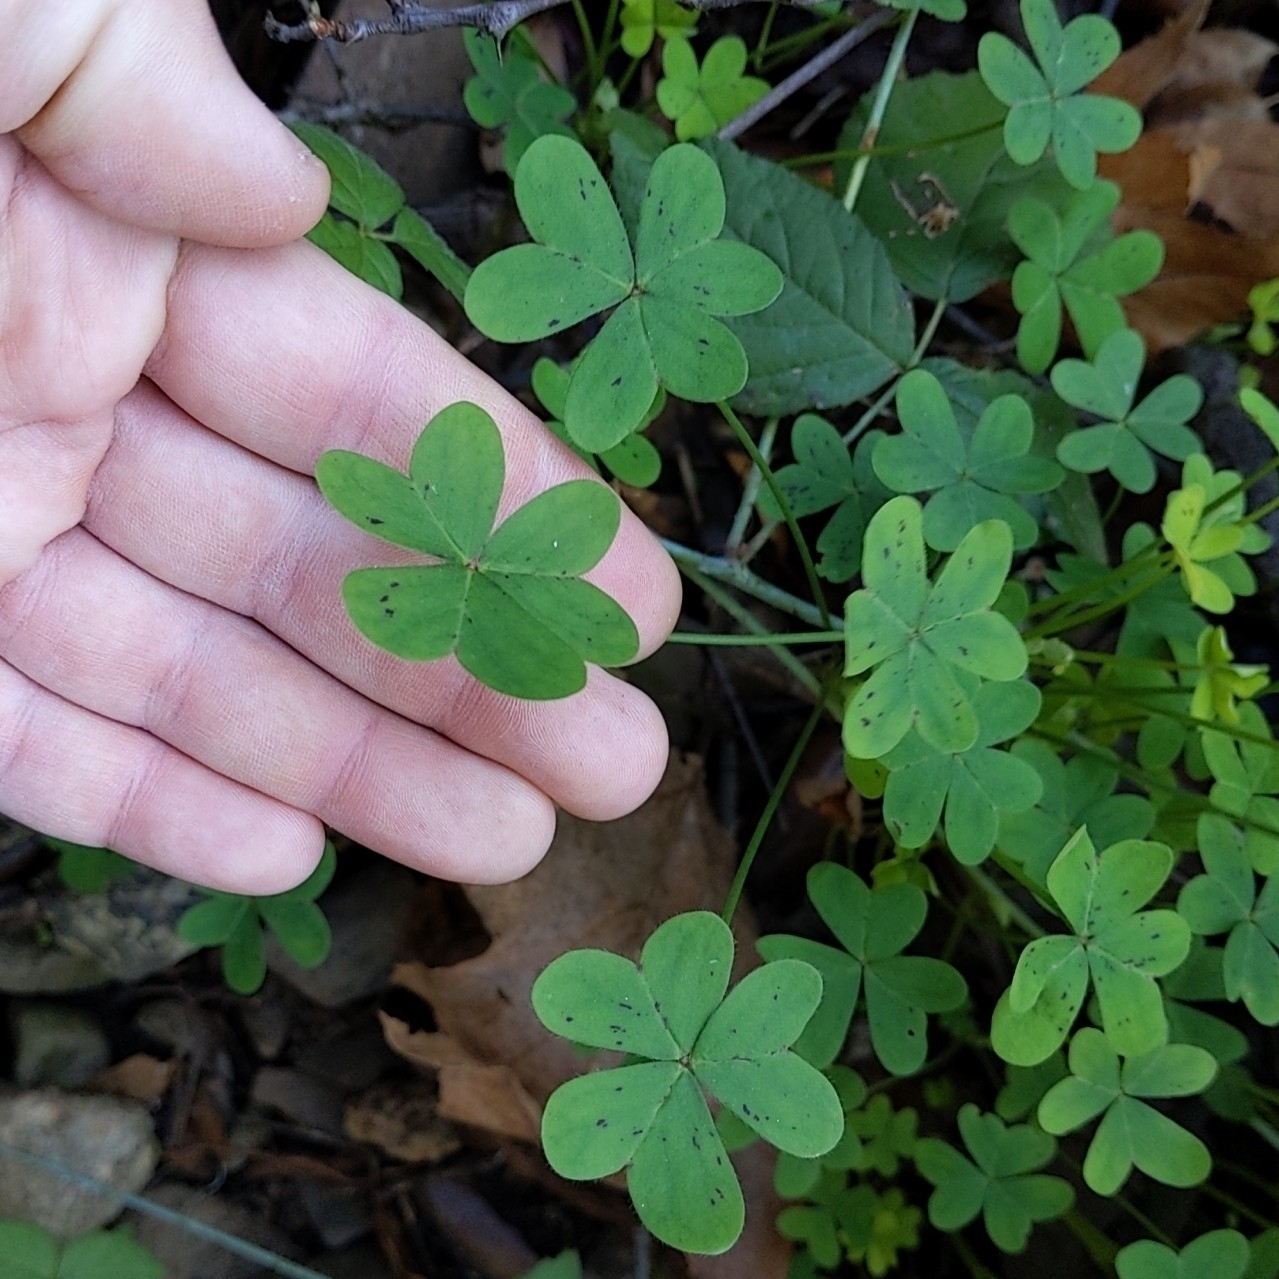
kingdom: Plantae
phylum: Tracheophyta
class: Magnoliopsida
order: Oxalidales
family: Oxalidaceae
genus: Oxalis
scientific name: Oxalis pes-caprae
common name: Bermuda-buttercup
